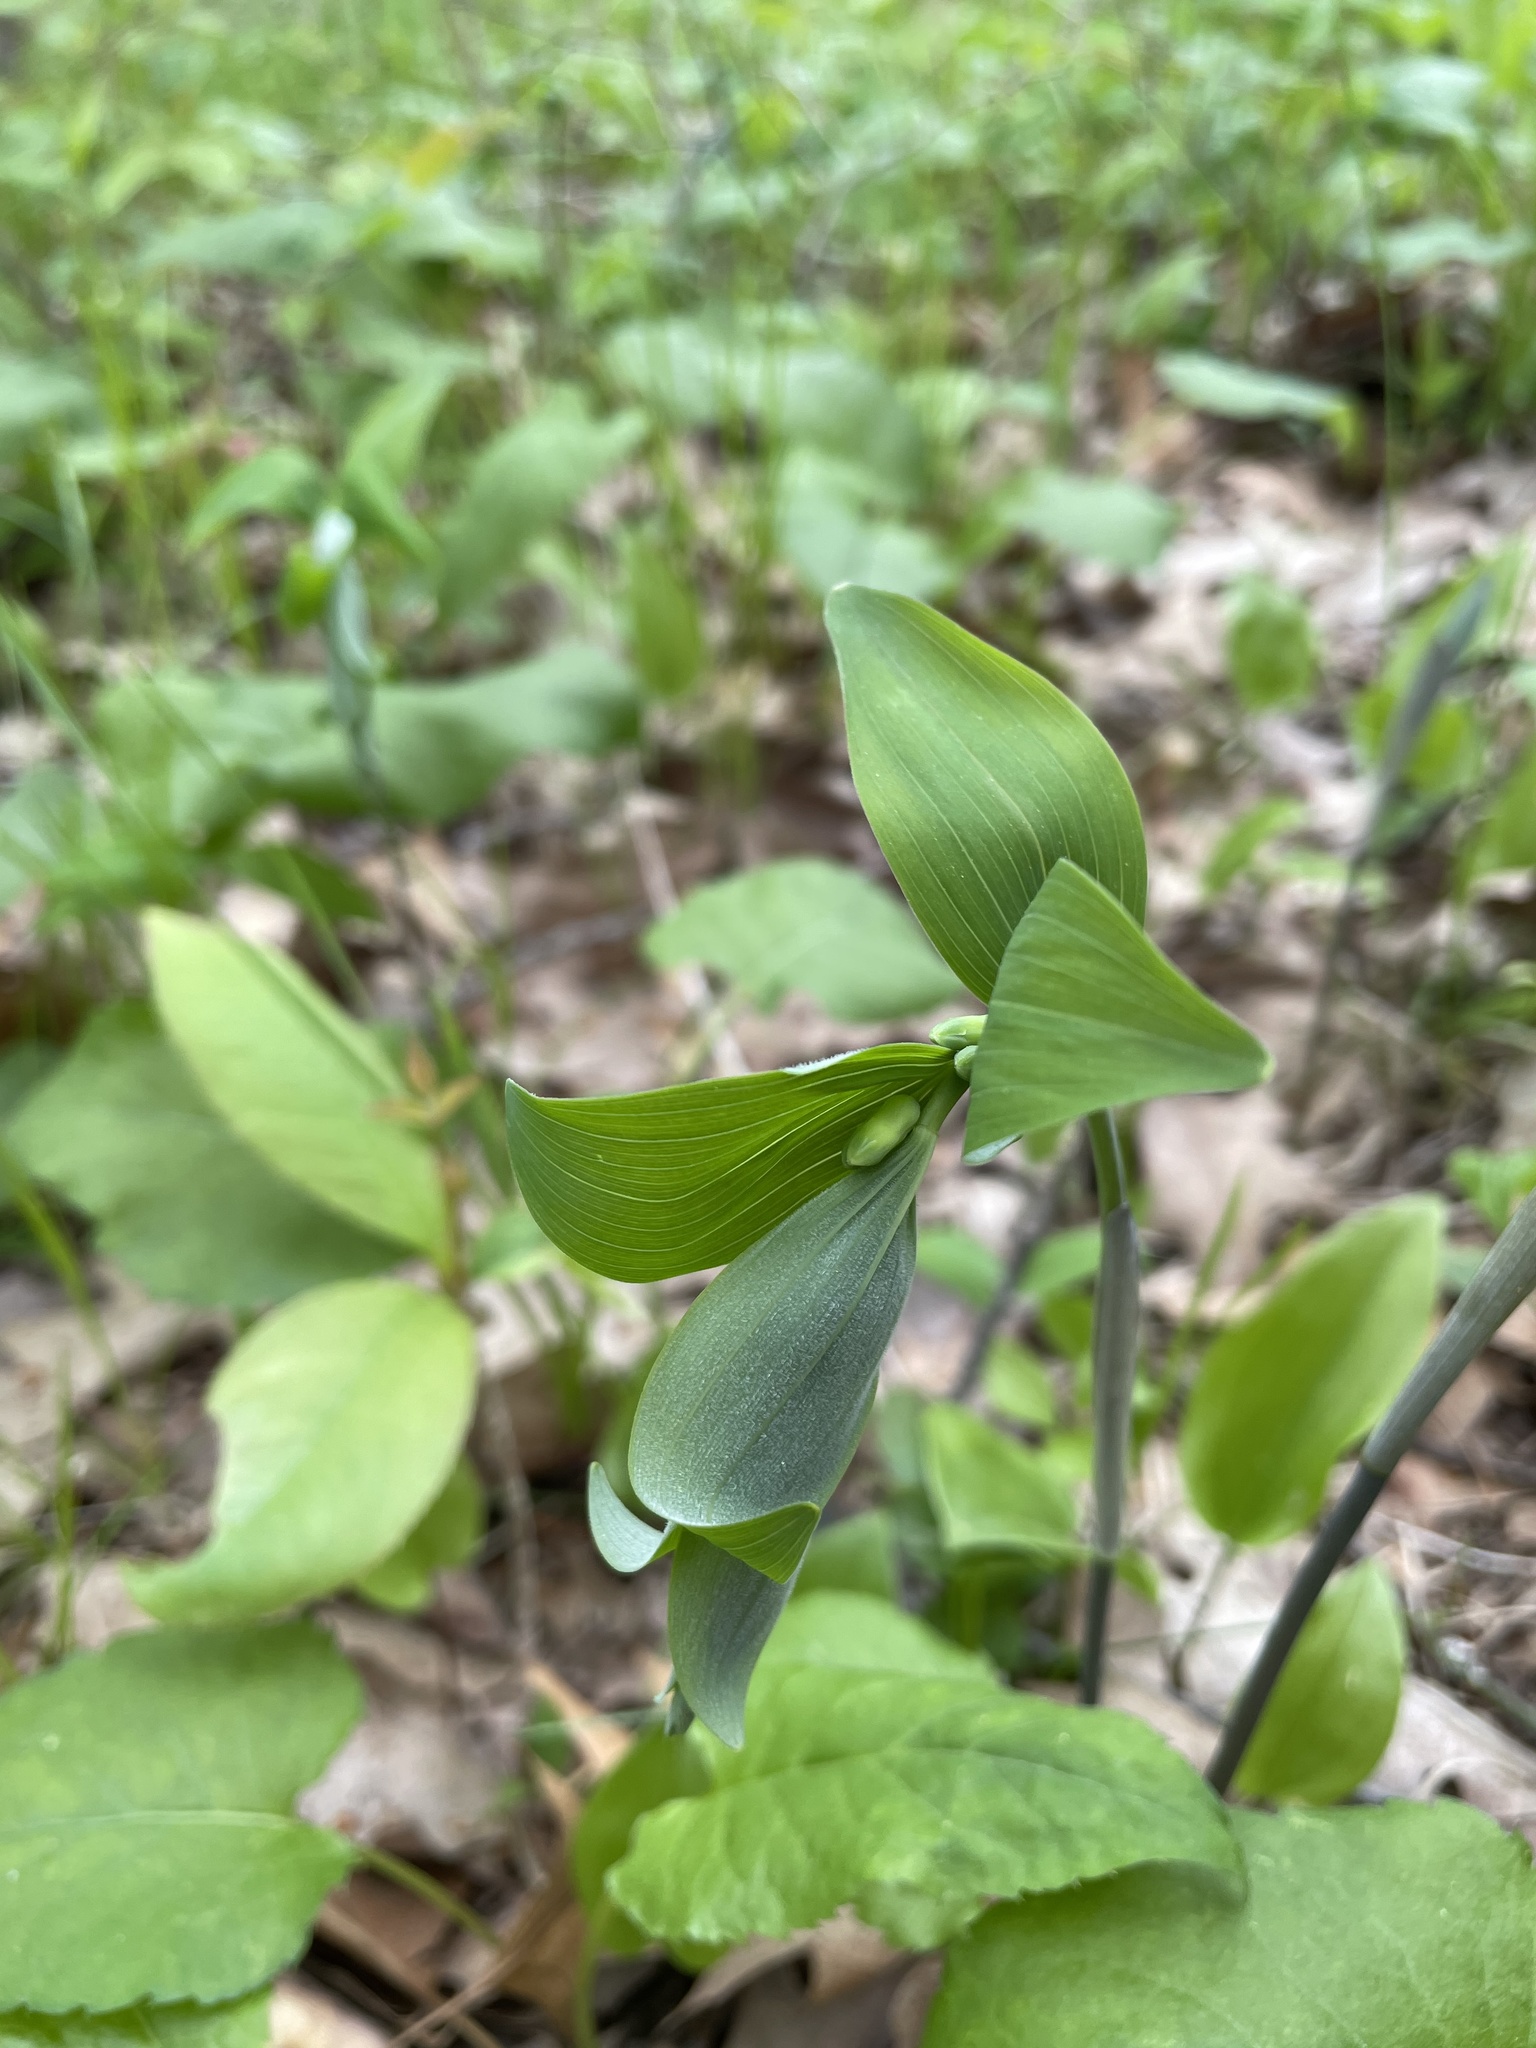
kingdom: Plantae
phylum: Tracheophyta
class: Liliopsida
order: Asparagales
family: Asparagaceae
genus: Polygonatum
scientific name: Polygonatum pubescens
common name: Downy solomon's seal
